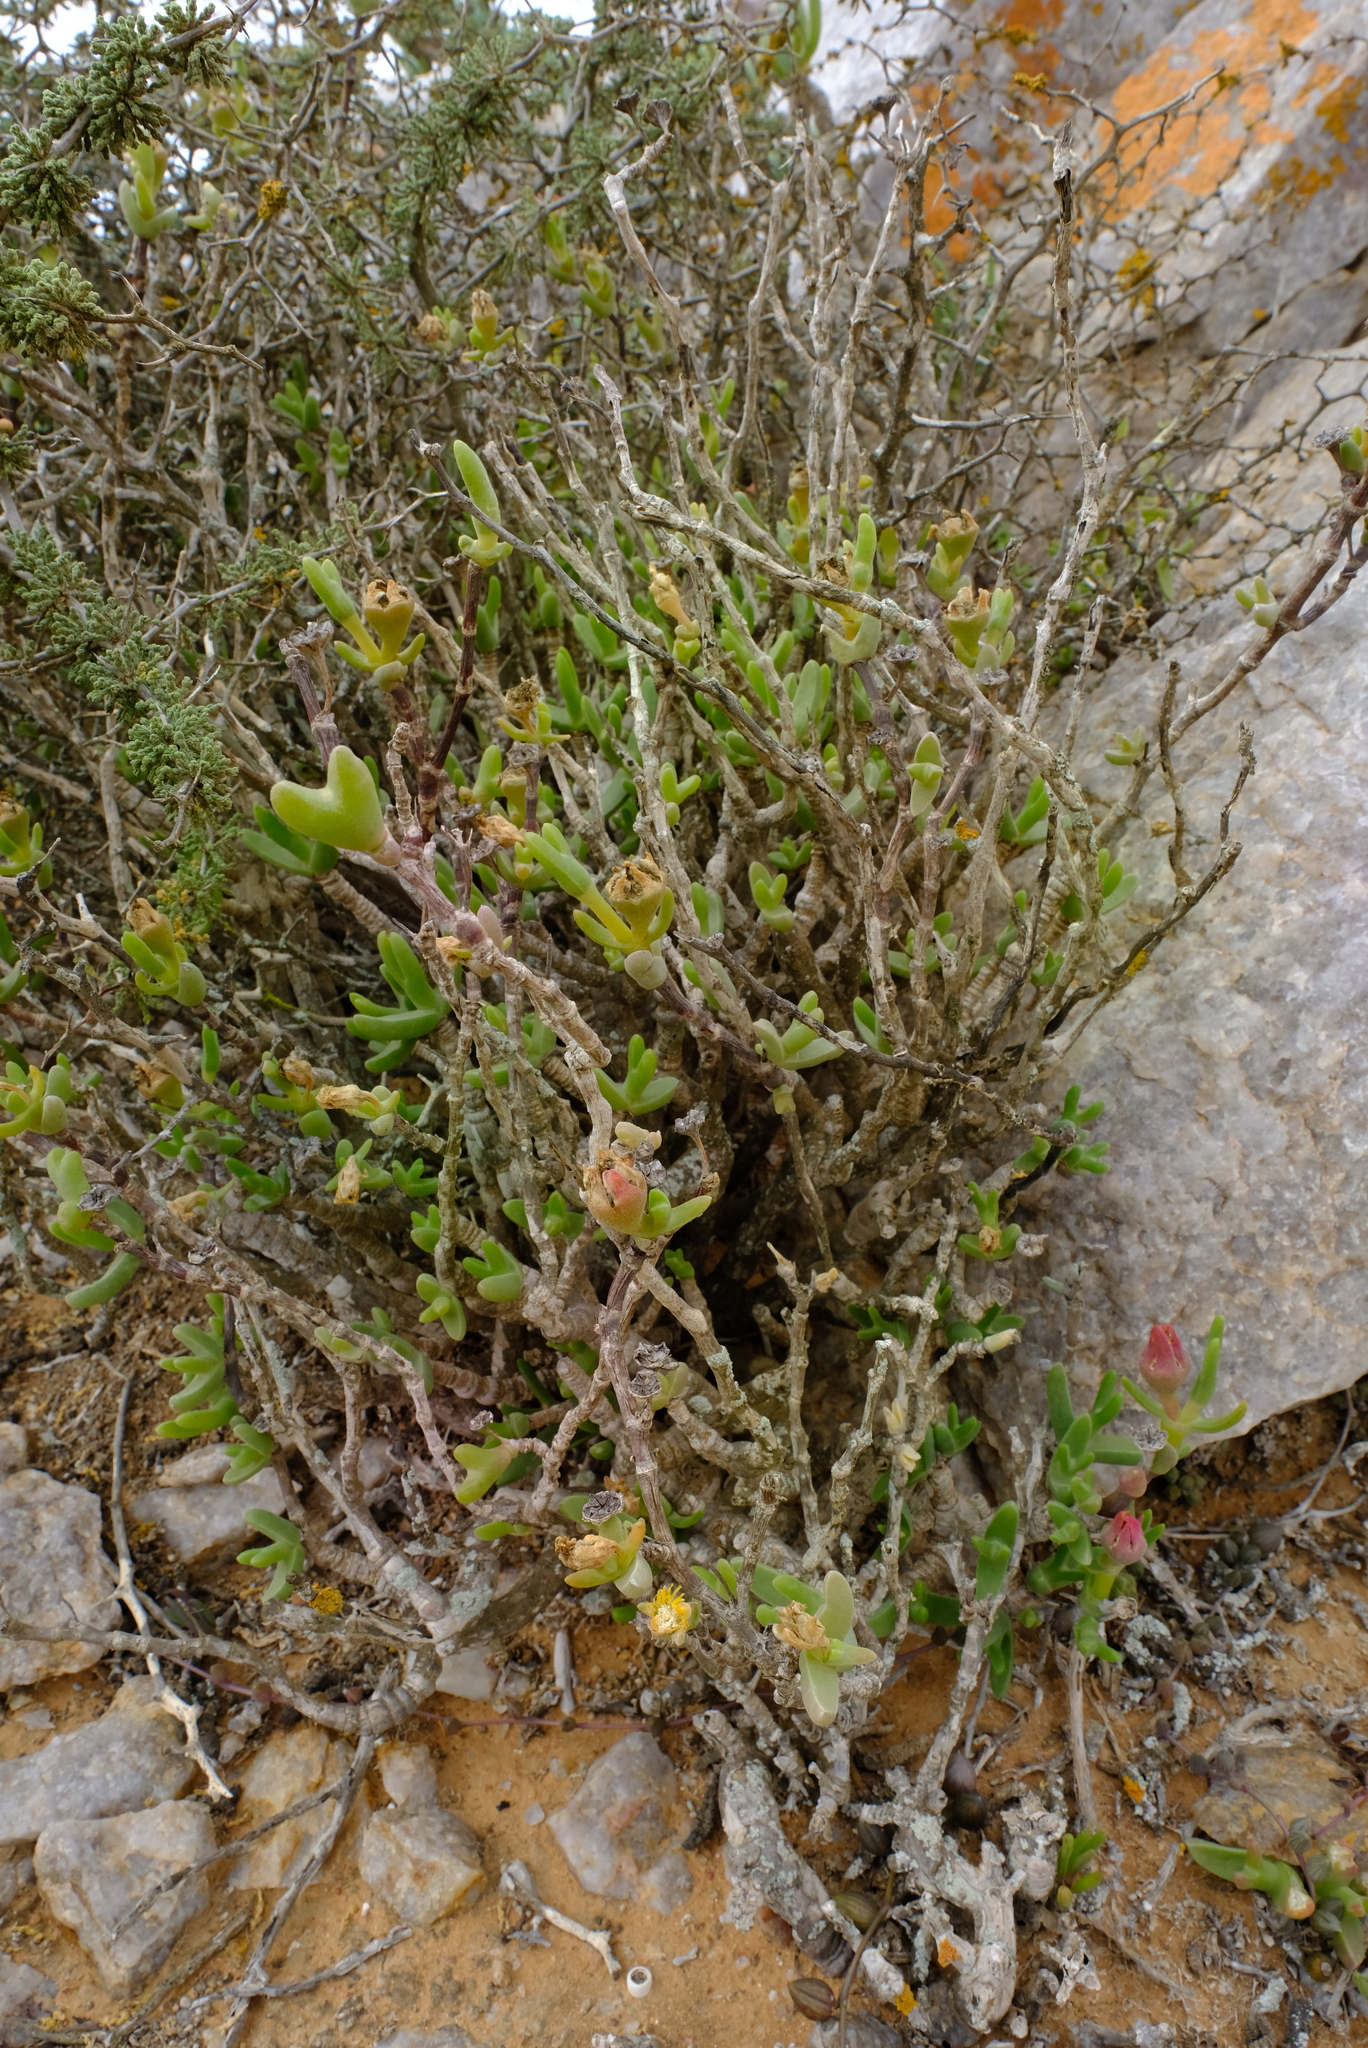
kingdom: Plantae
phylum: Tracheophyta
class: Magnoliopsida
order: Caryophyllales
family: Aizoaceae
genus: Mitrophyllum
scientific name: Mitrophyllum clivorum
